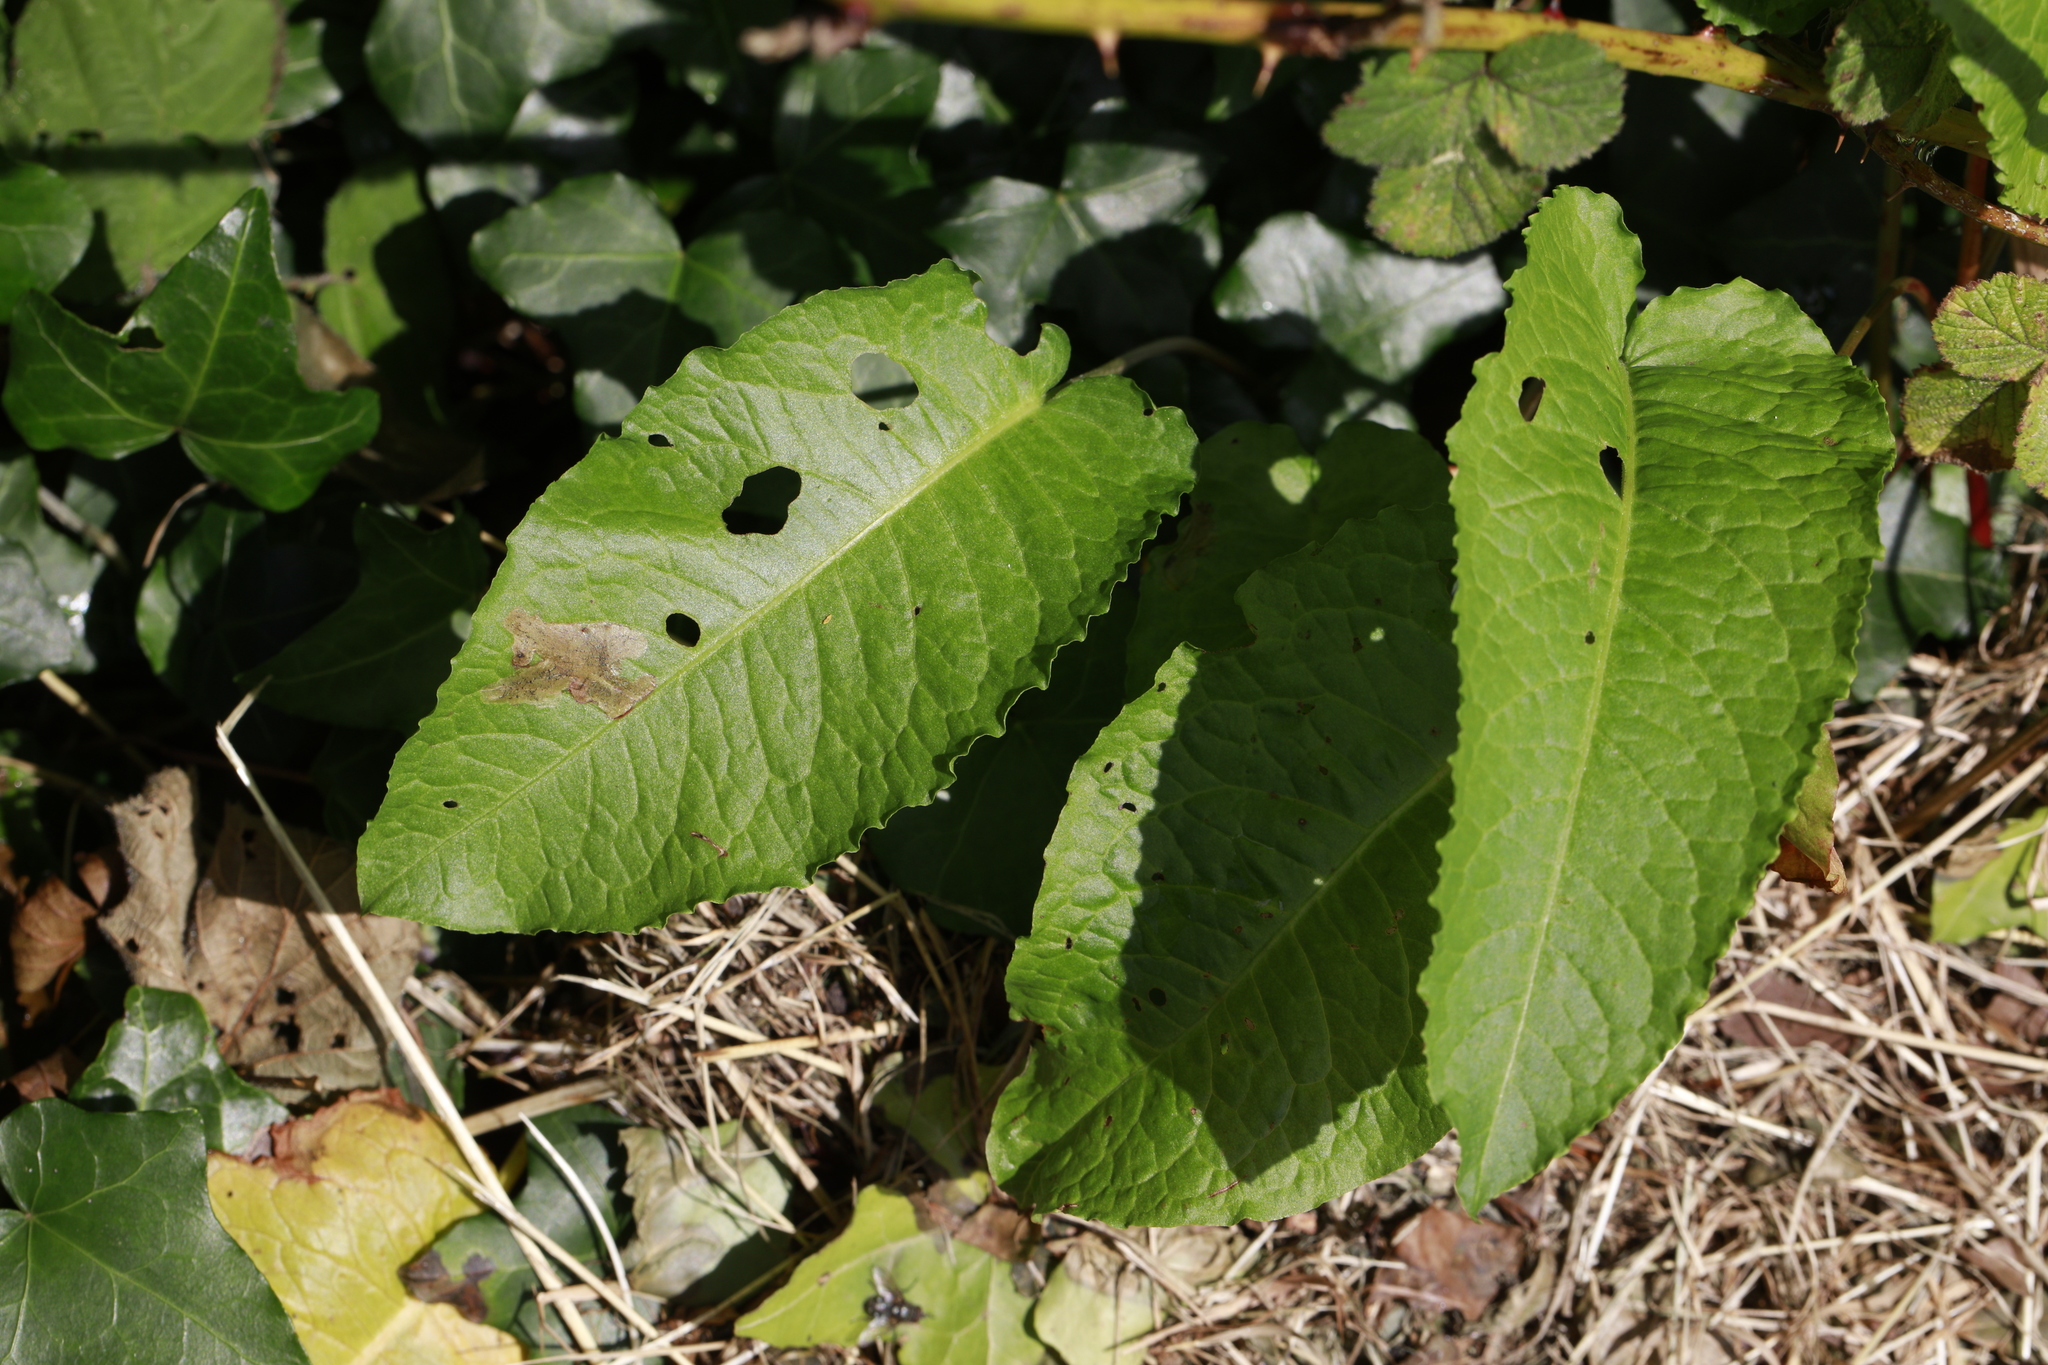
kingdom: Plantae
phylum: Tracheophyta
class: Magnoliopsida
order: Caryophyllales
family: Polygonaceae
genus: Rumex
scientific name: Rumex obtusifolius
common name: Bitter dock
